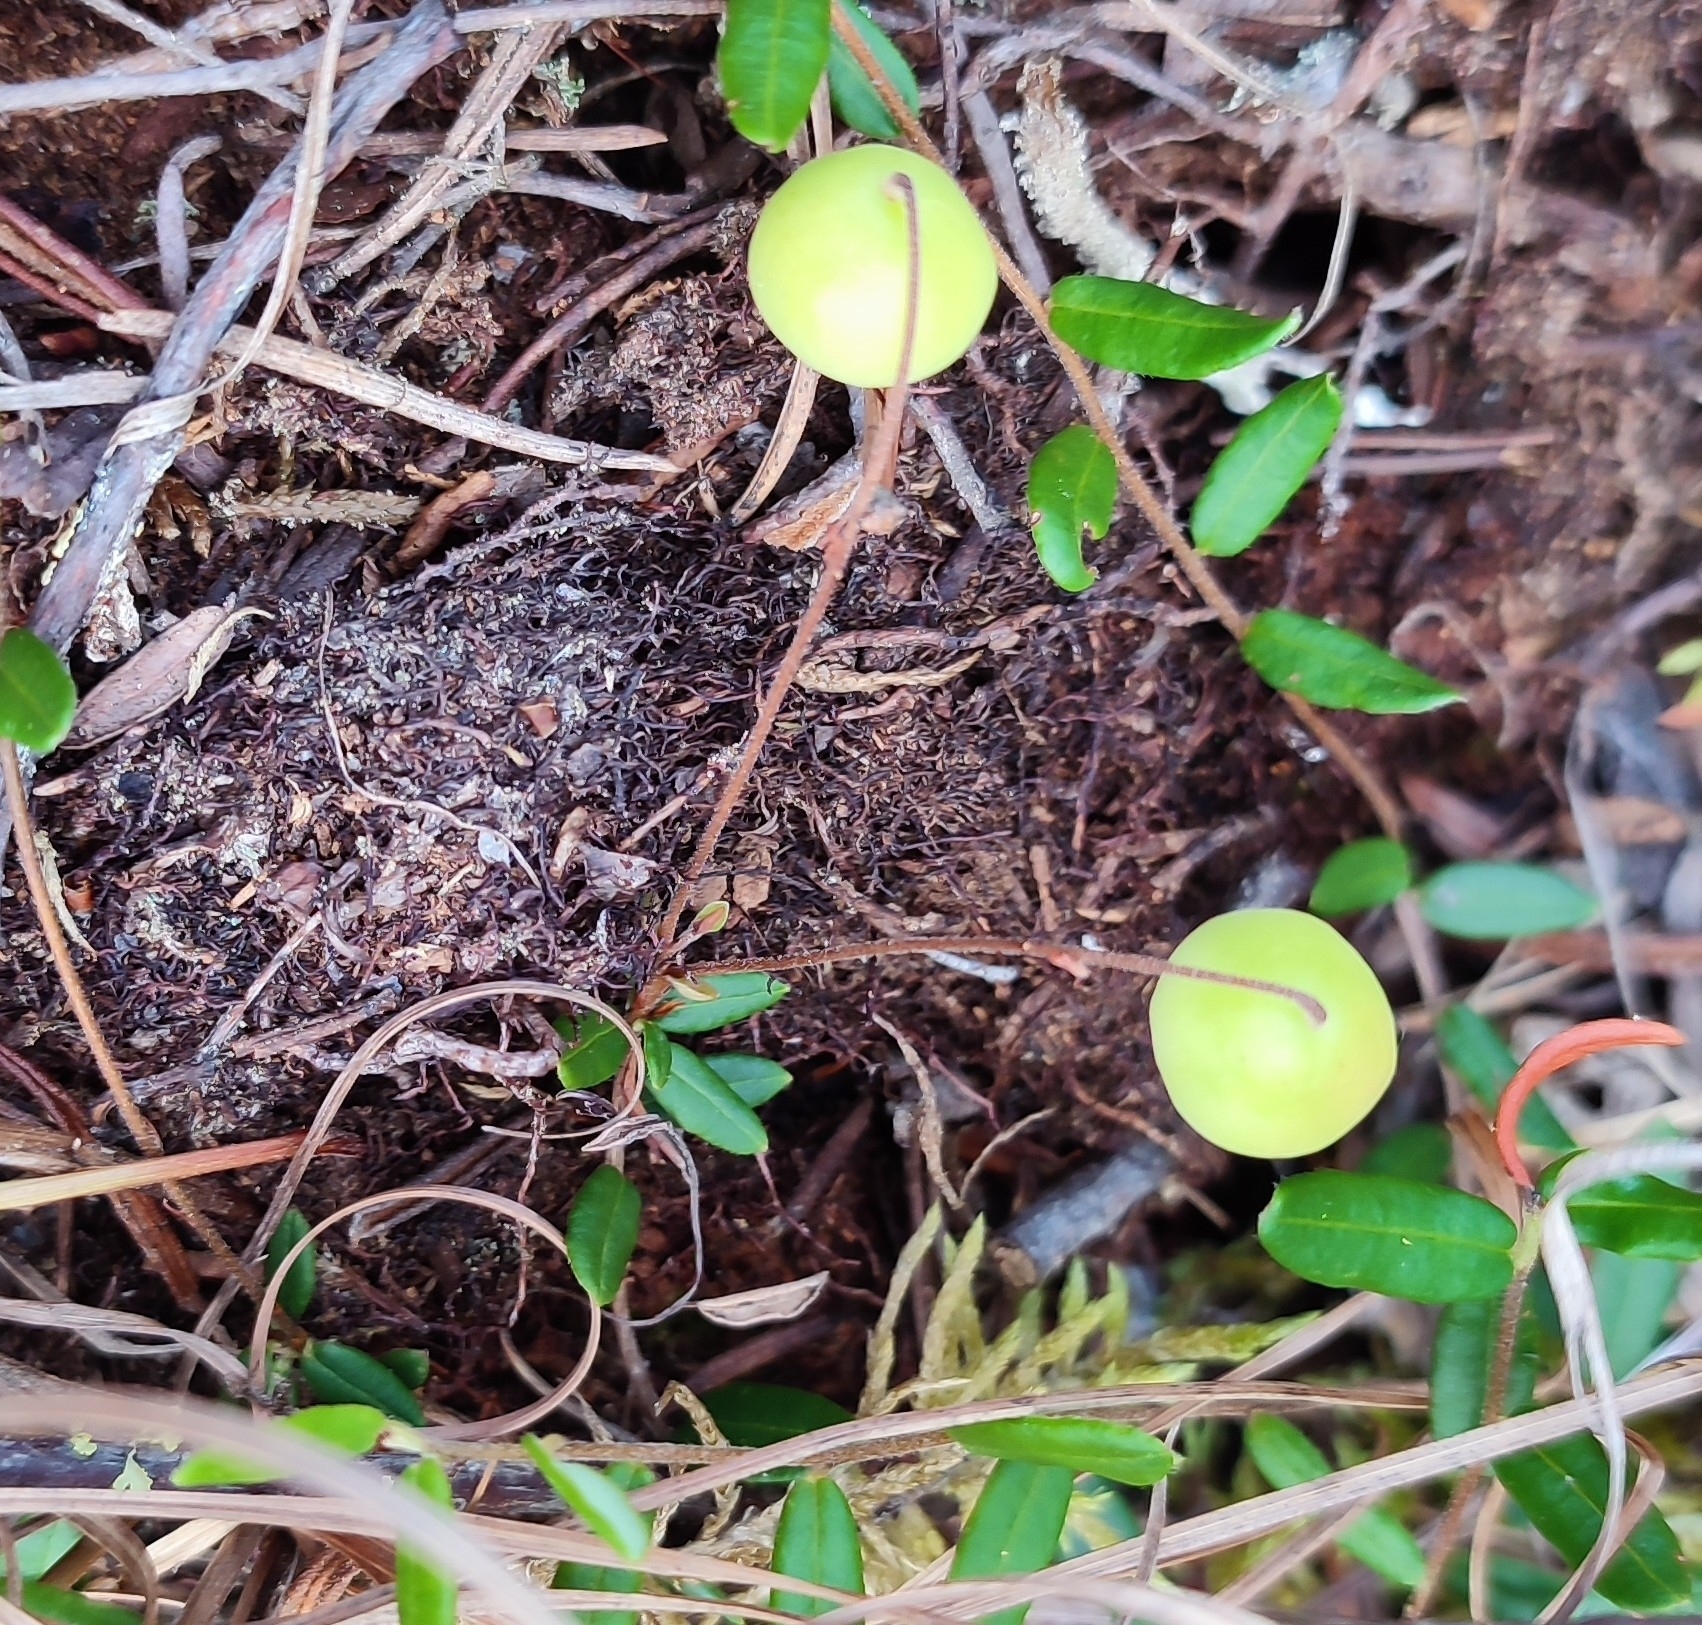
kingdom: Plantae
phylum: Tracheophyta
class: Magnoliopsida
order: Ericales
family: Ericaceae
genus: Vaccinium
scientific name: Vaccinium oxycoccos
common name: Cranberry
